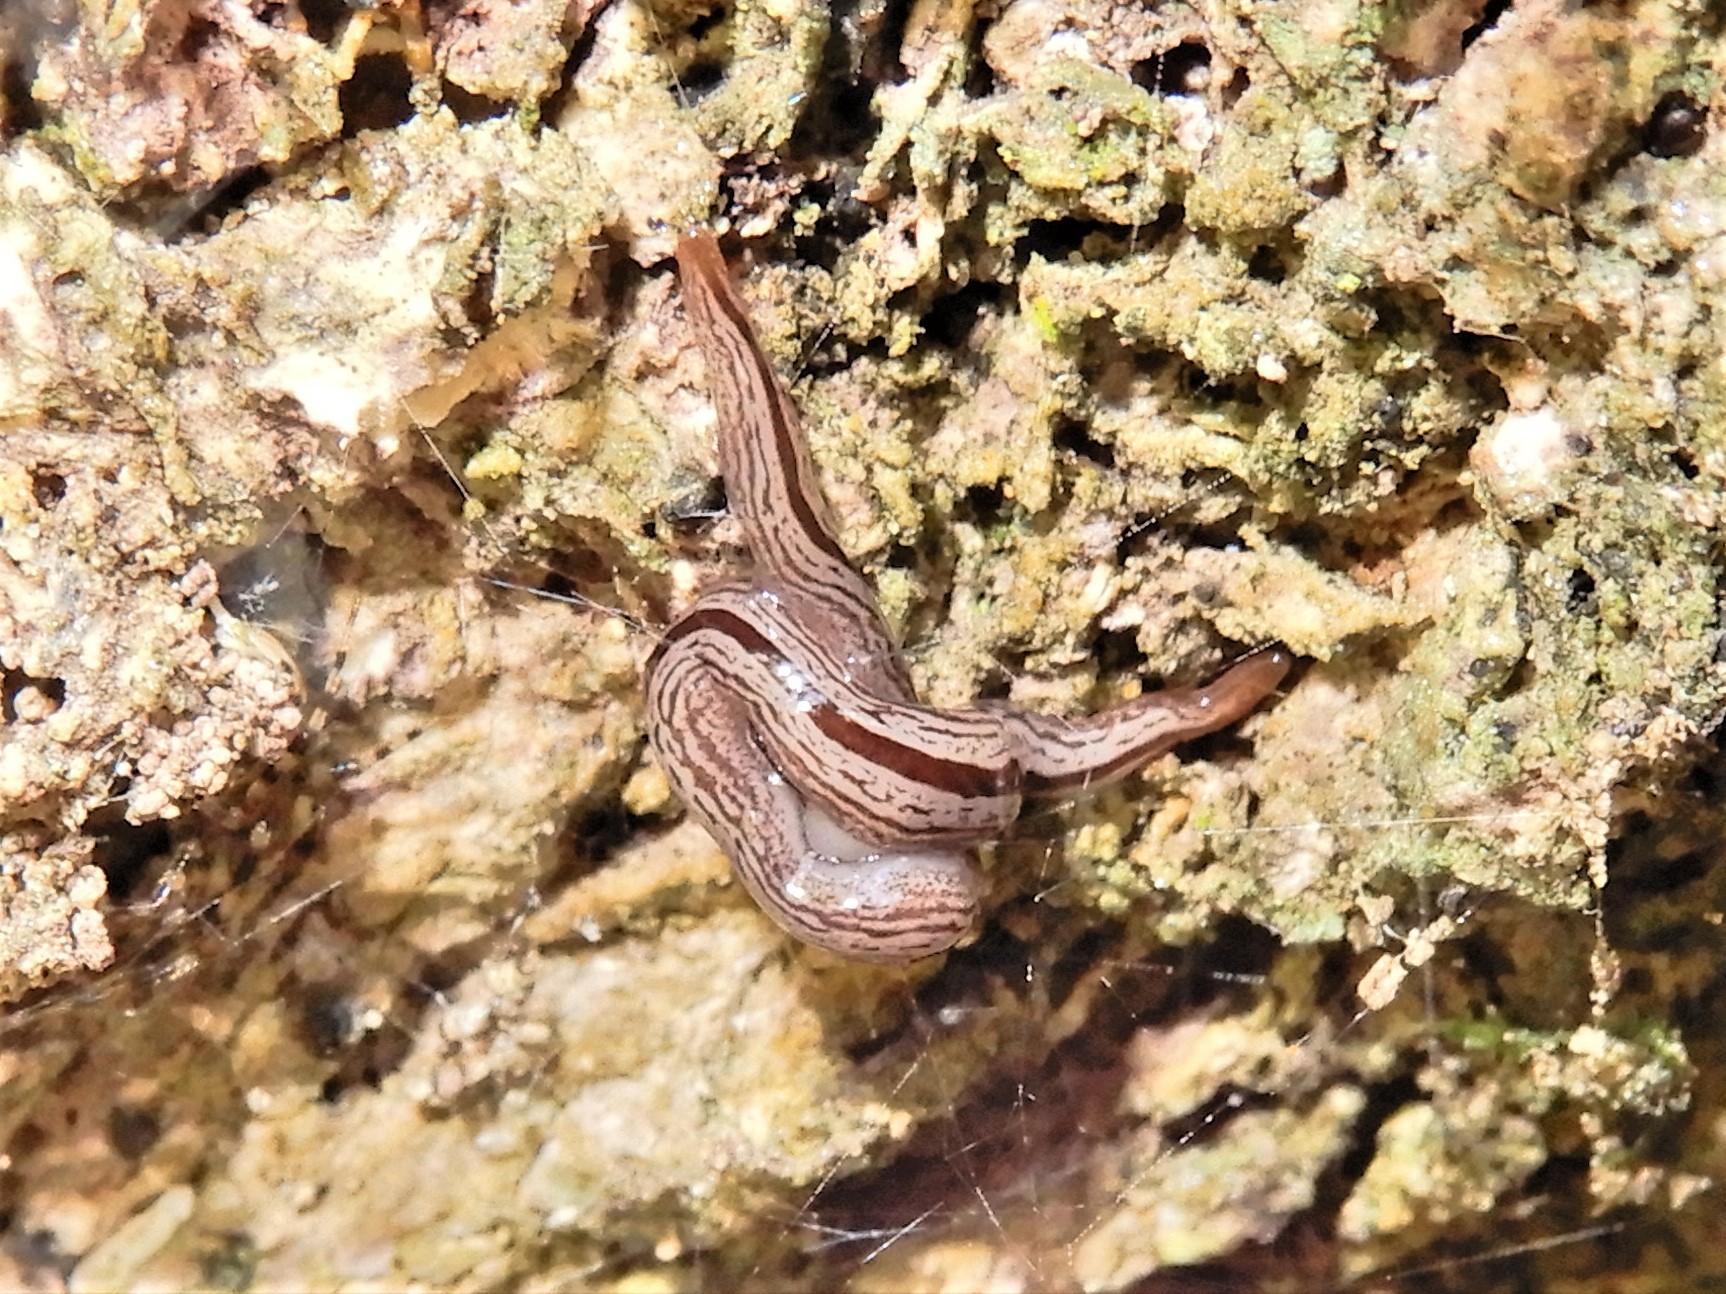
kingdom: Animalia
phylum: Platyhelminthes
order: Tricladida
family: Geoplanidae
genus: Artioposthia
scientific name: Artioposthia exulans
